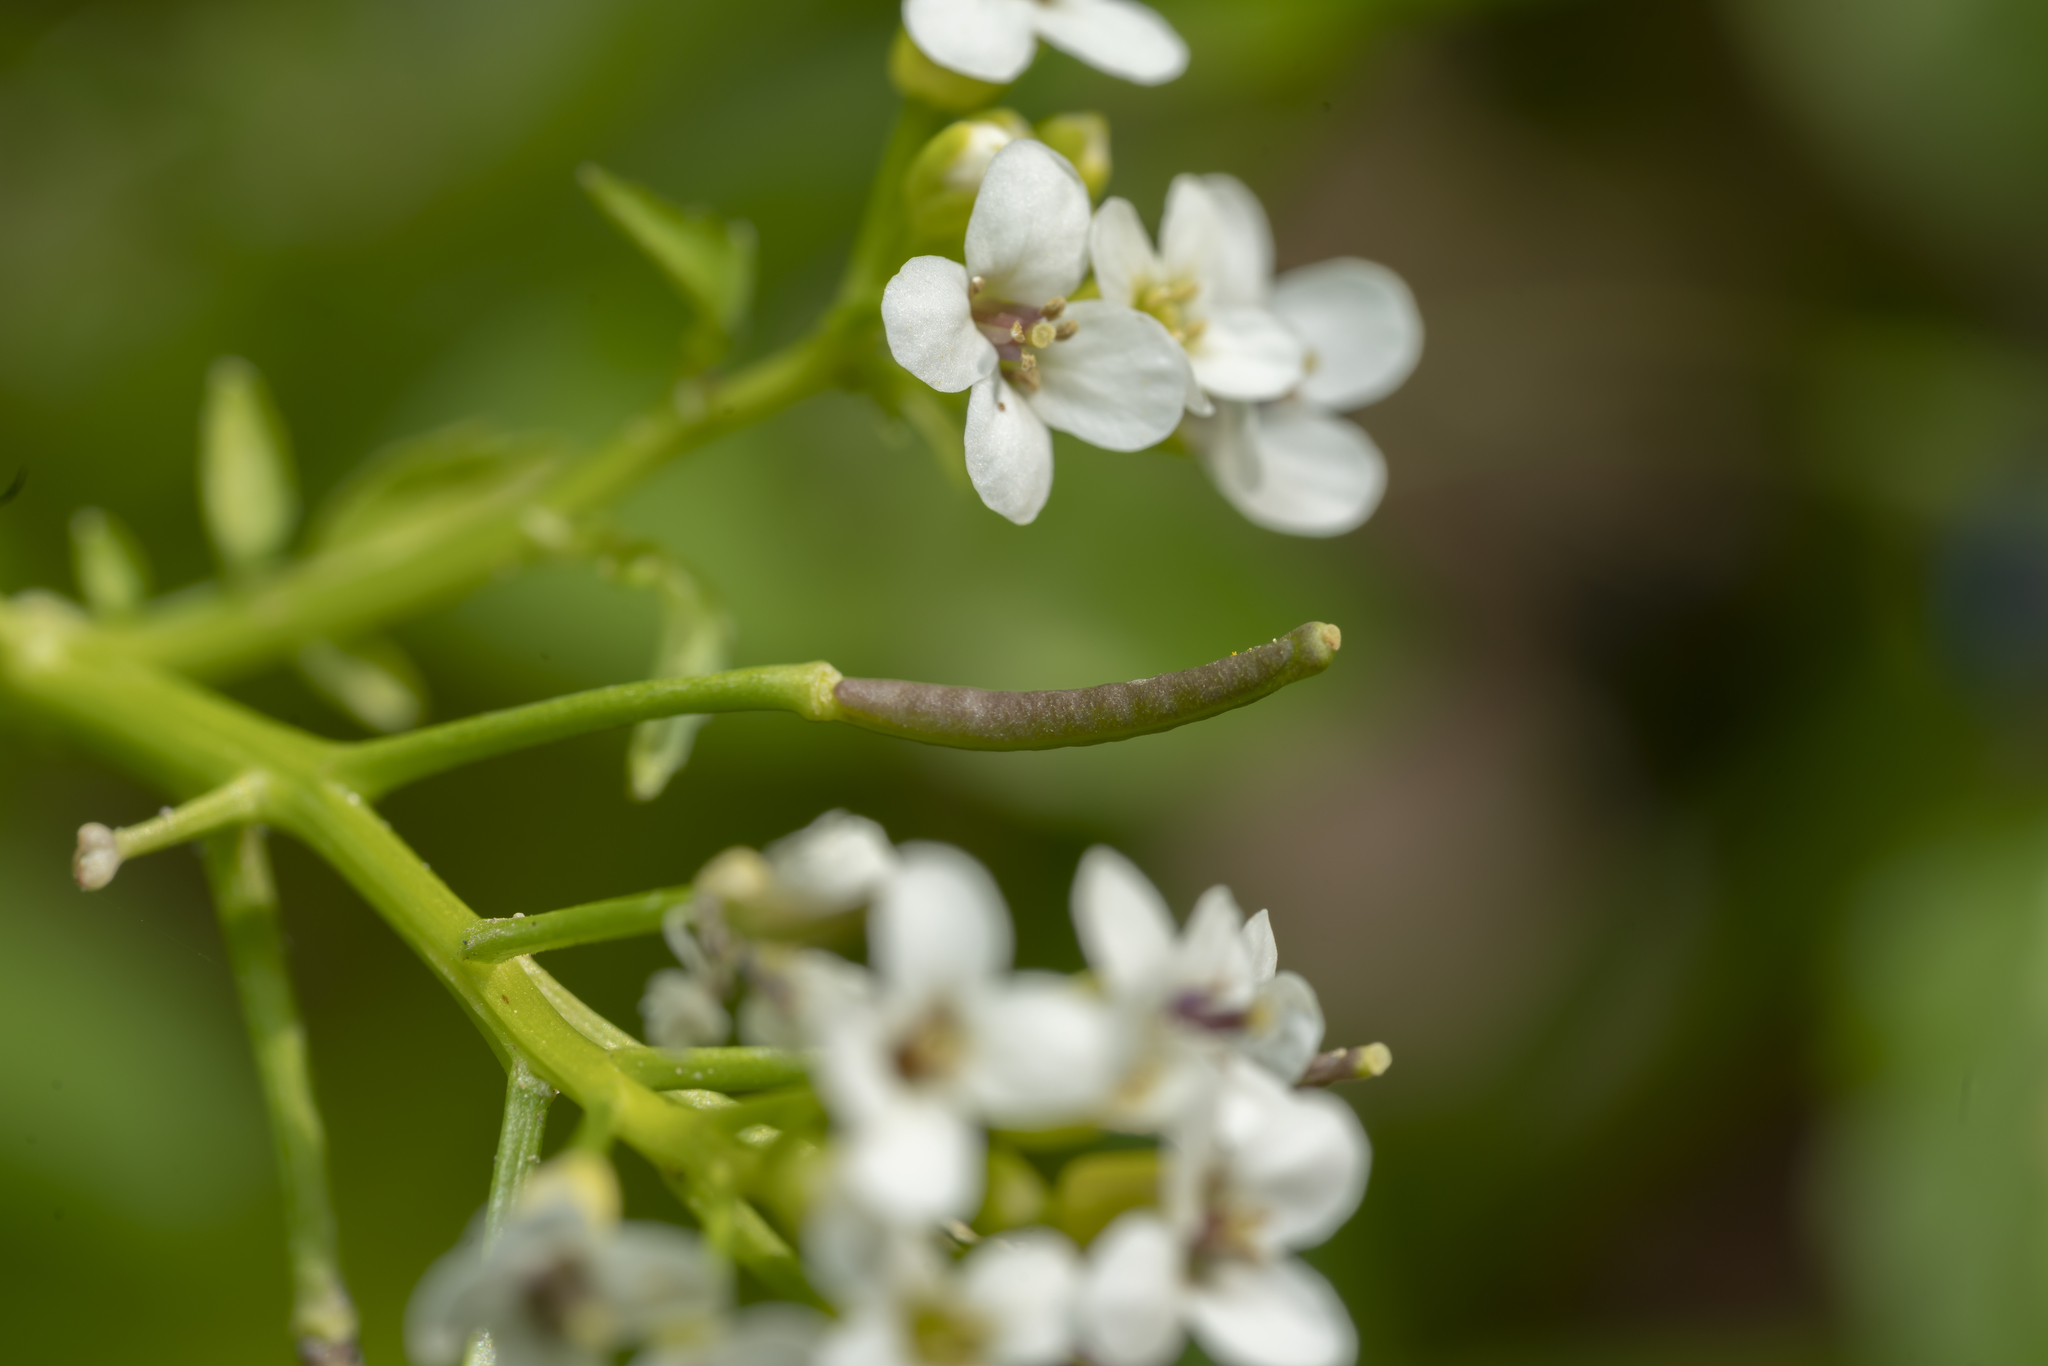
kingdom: Plantae
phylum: Tracheophyta
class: Magnoliopsida
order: Brassicales
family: Brassicaceae
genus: Nasturtium
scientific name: Nasturtium officinale
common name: Watercress
